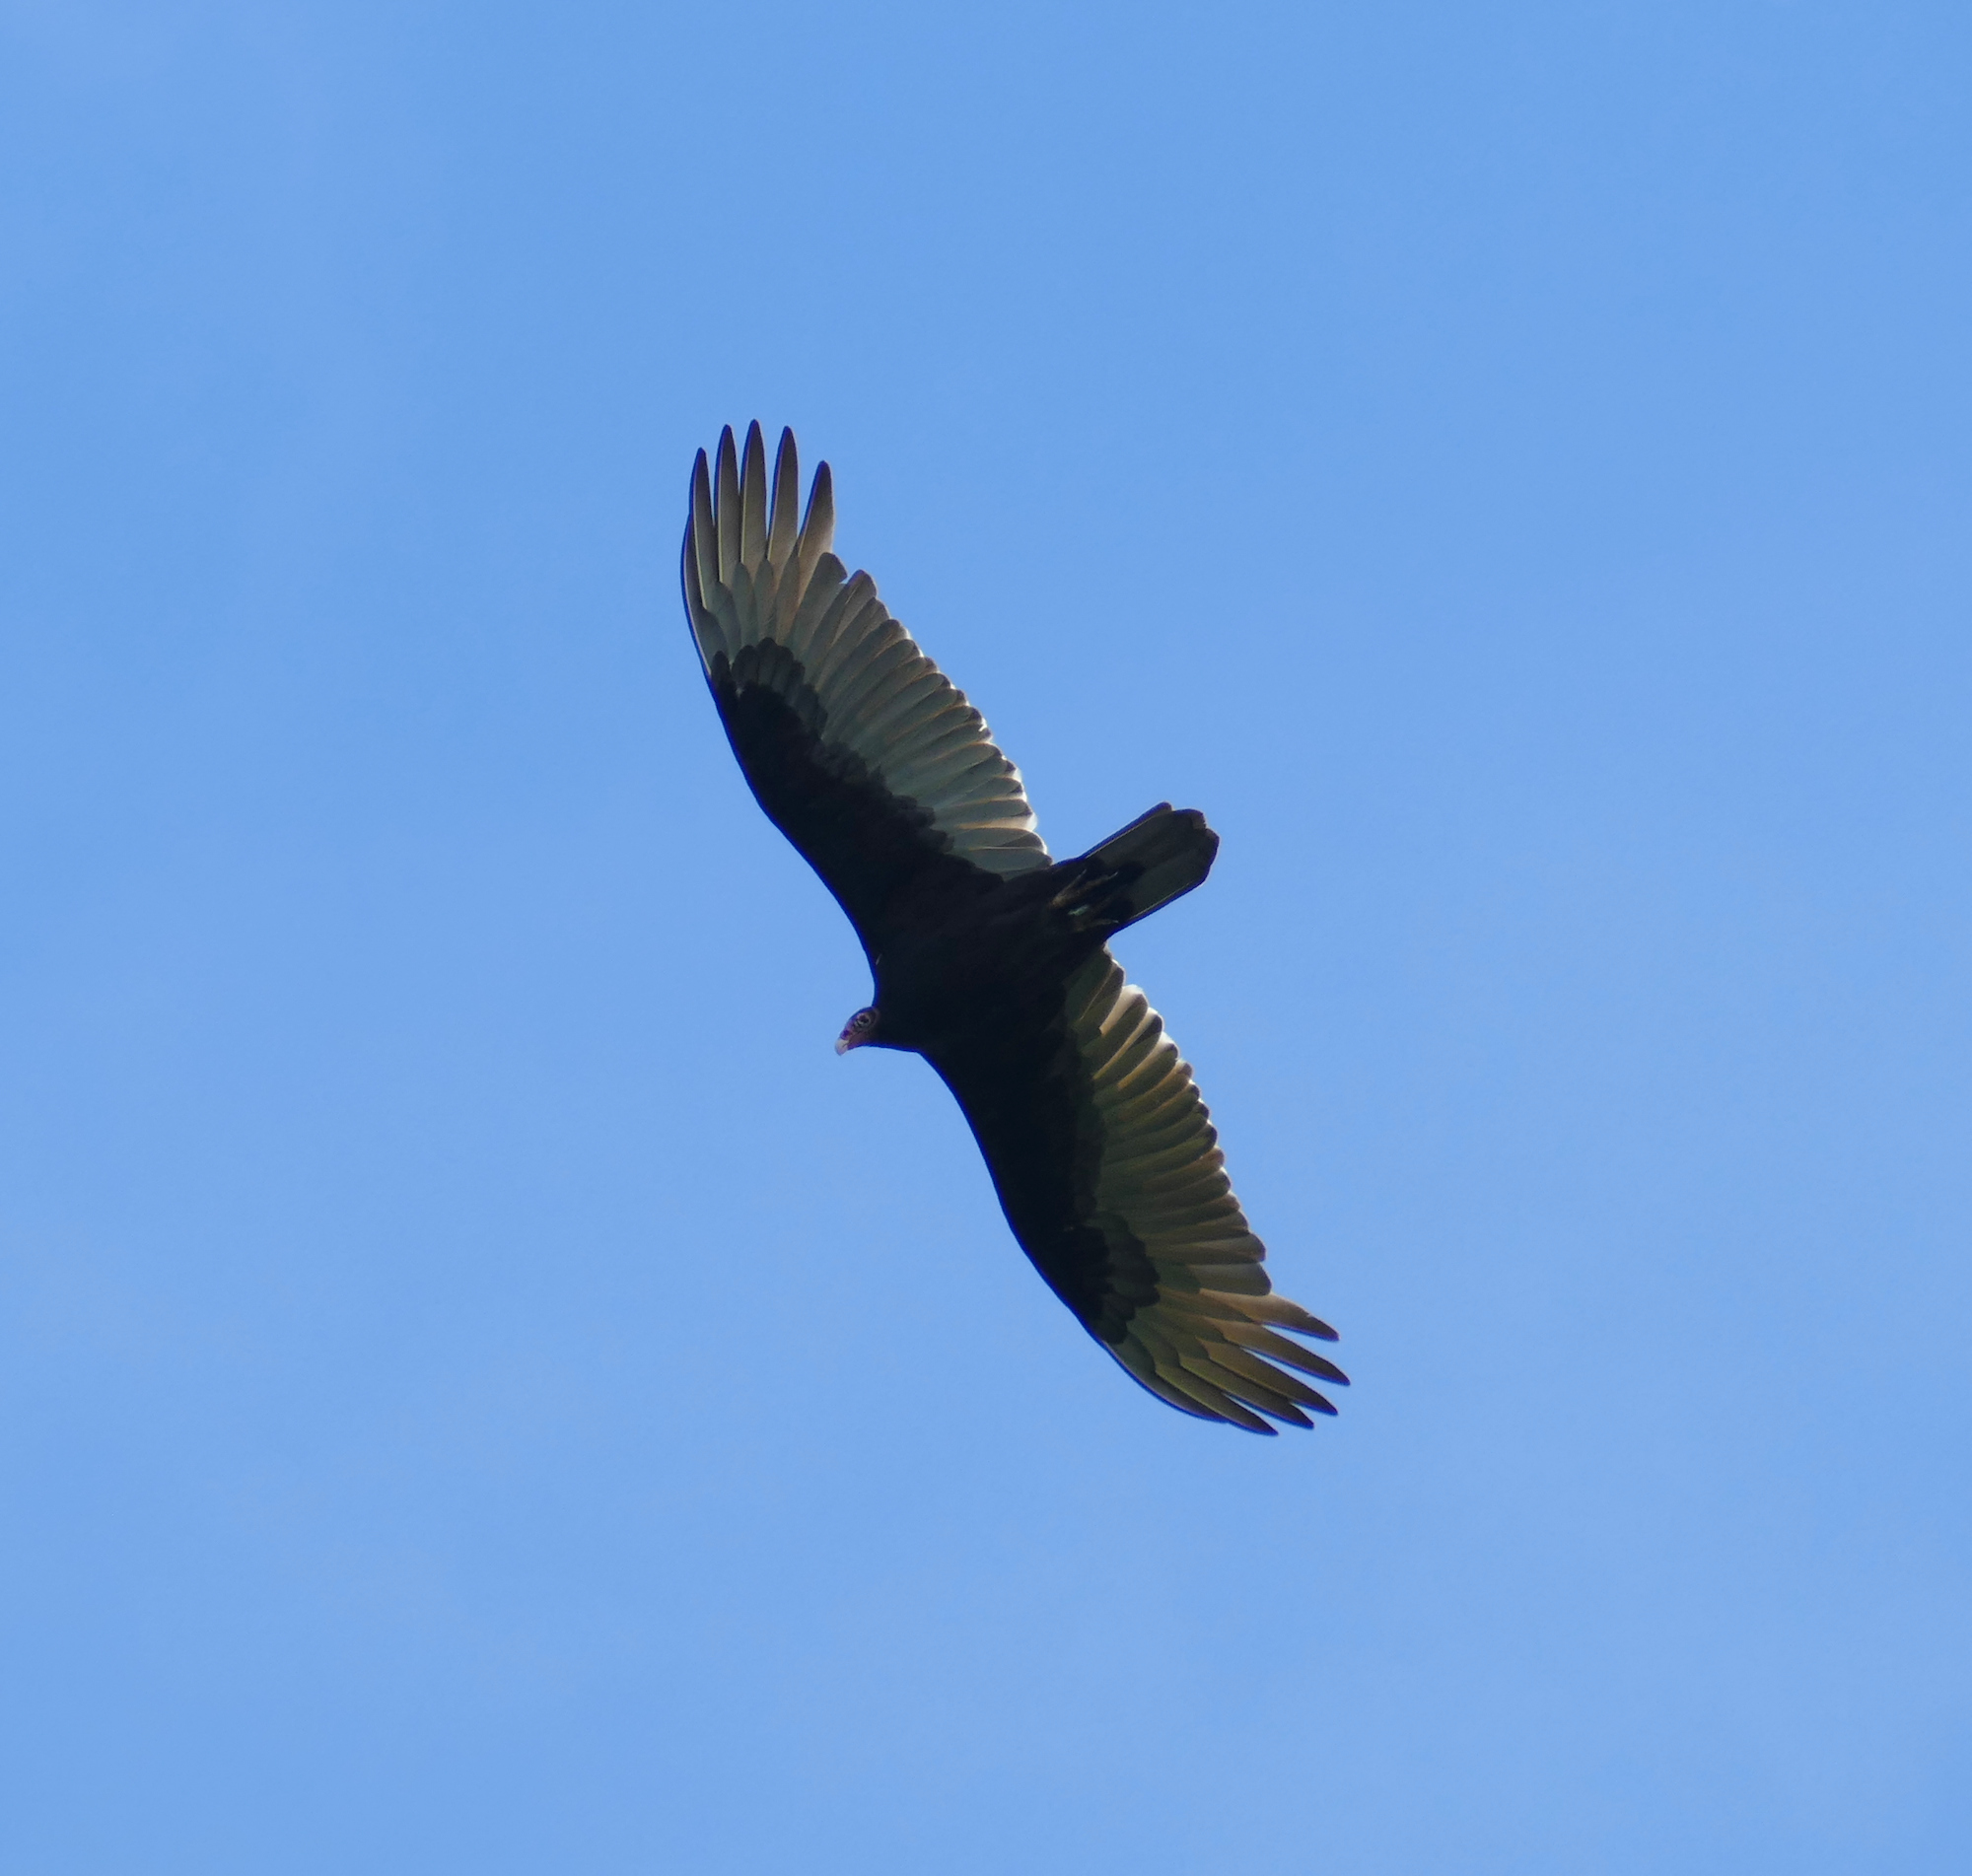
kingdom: Animalia
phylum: Chordata
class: Aves
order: Accipitriformes
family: Cathartidae
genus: Cathartes
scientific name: Cathartes aura
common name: Turkey vulture
